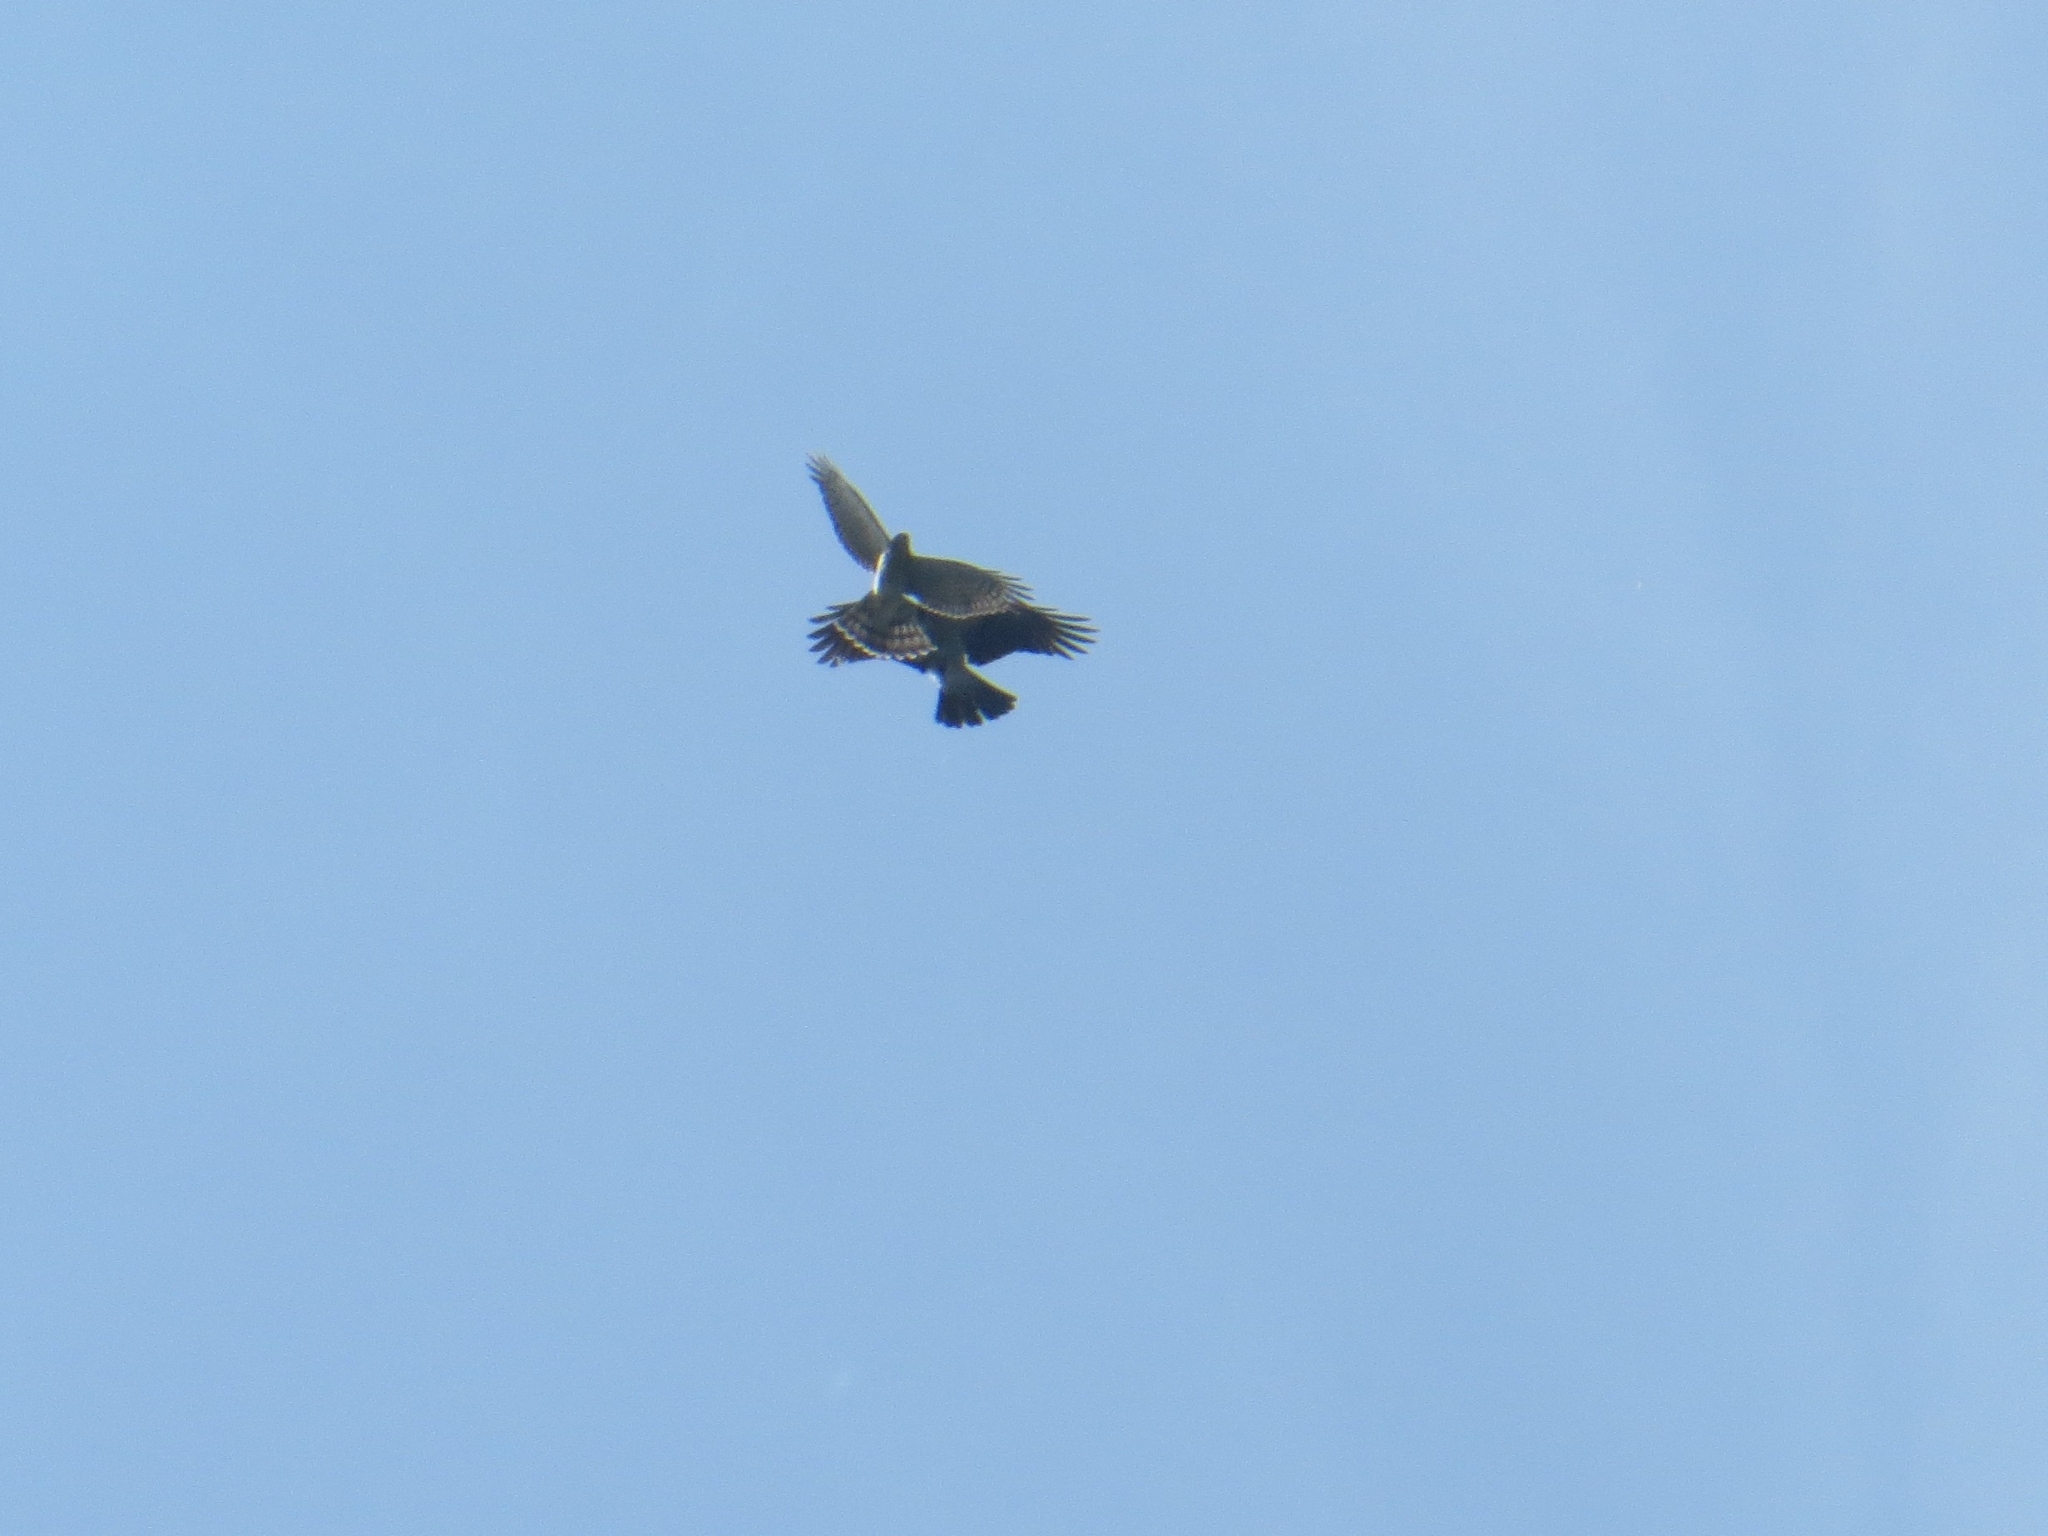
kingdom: Animalia
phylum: Chordata
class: Aves
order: Accipitriformes
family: Accipitridae
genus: Accipiter
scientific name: Accipiter nisus
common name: Eurasian sparrowhawk
